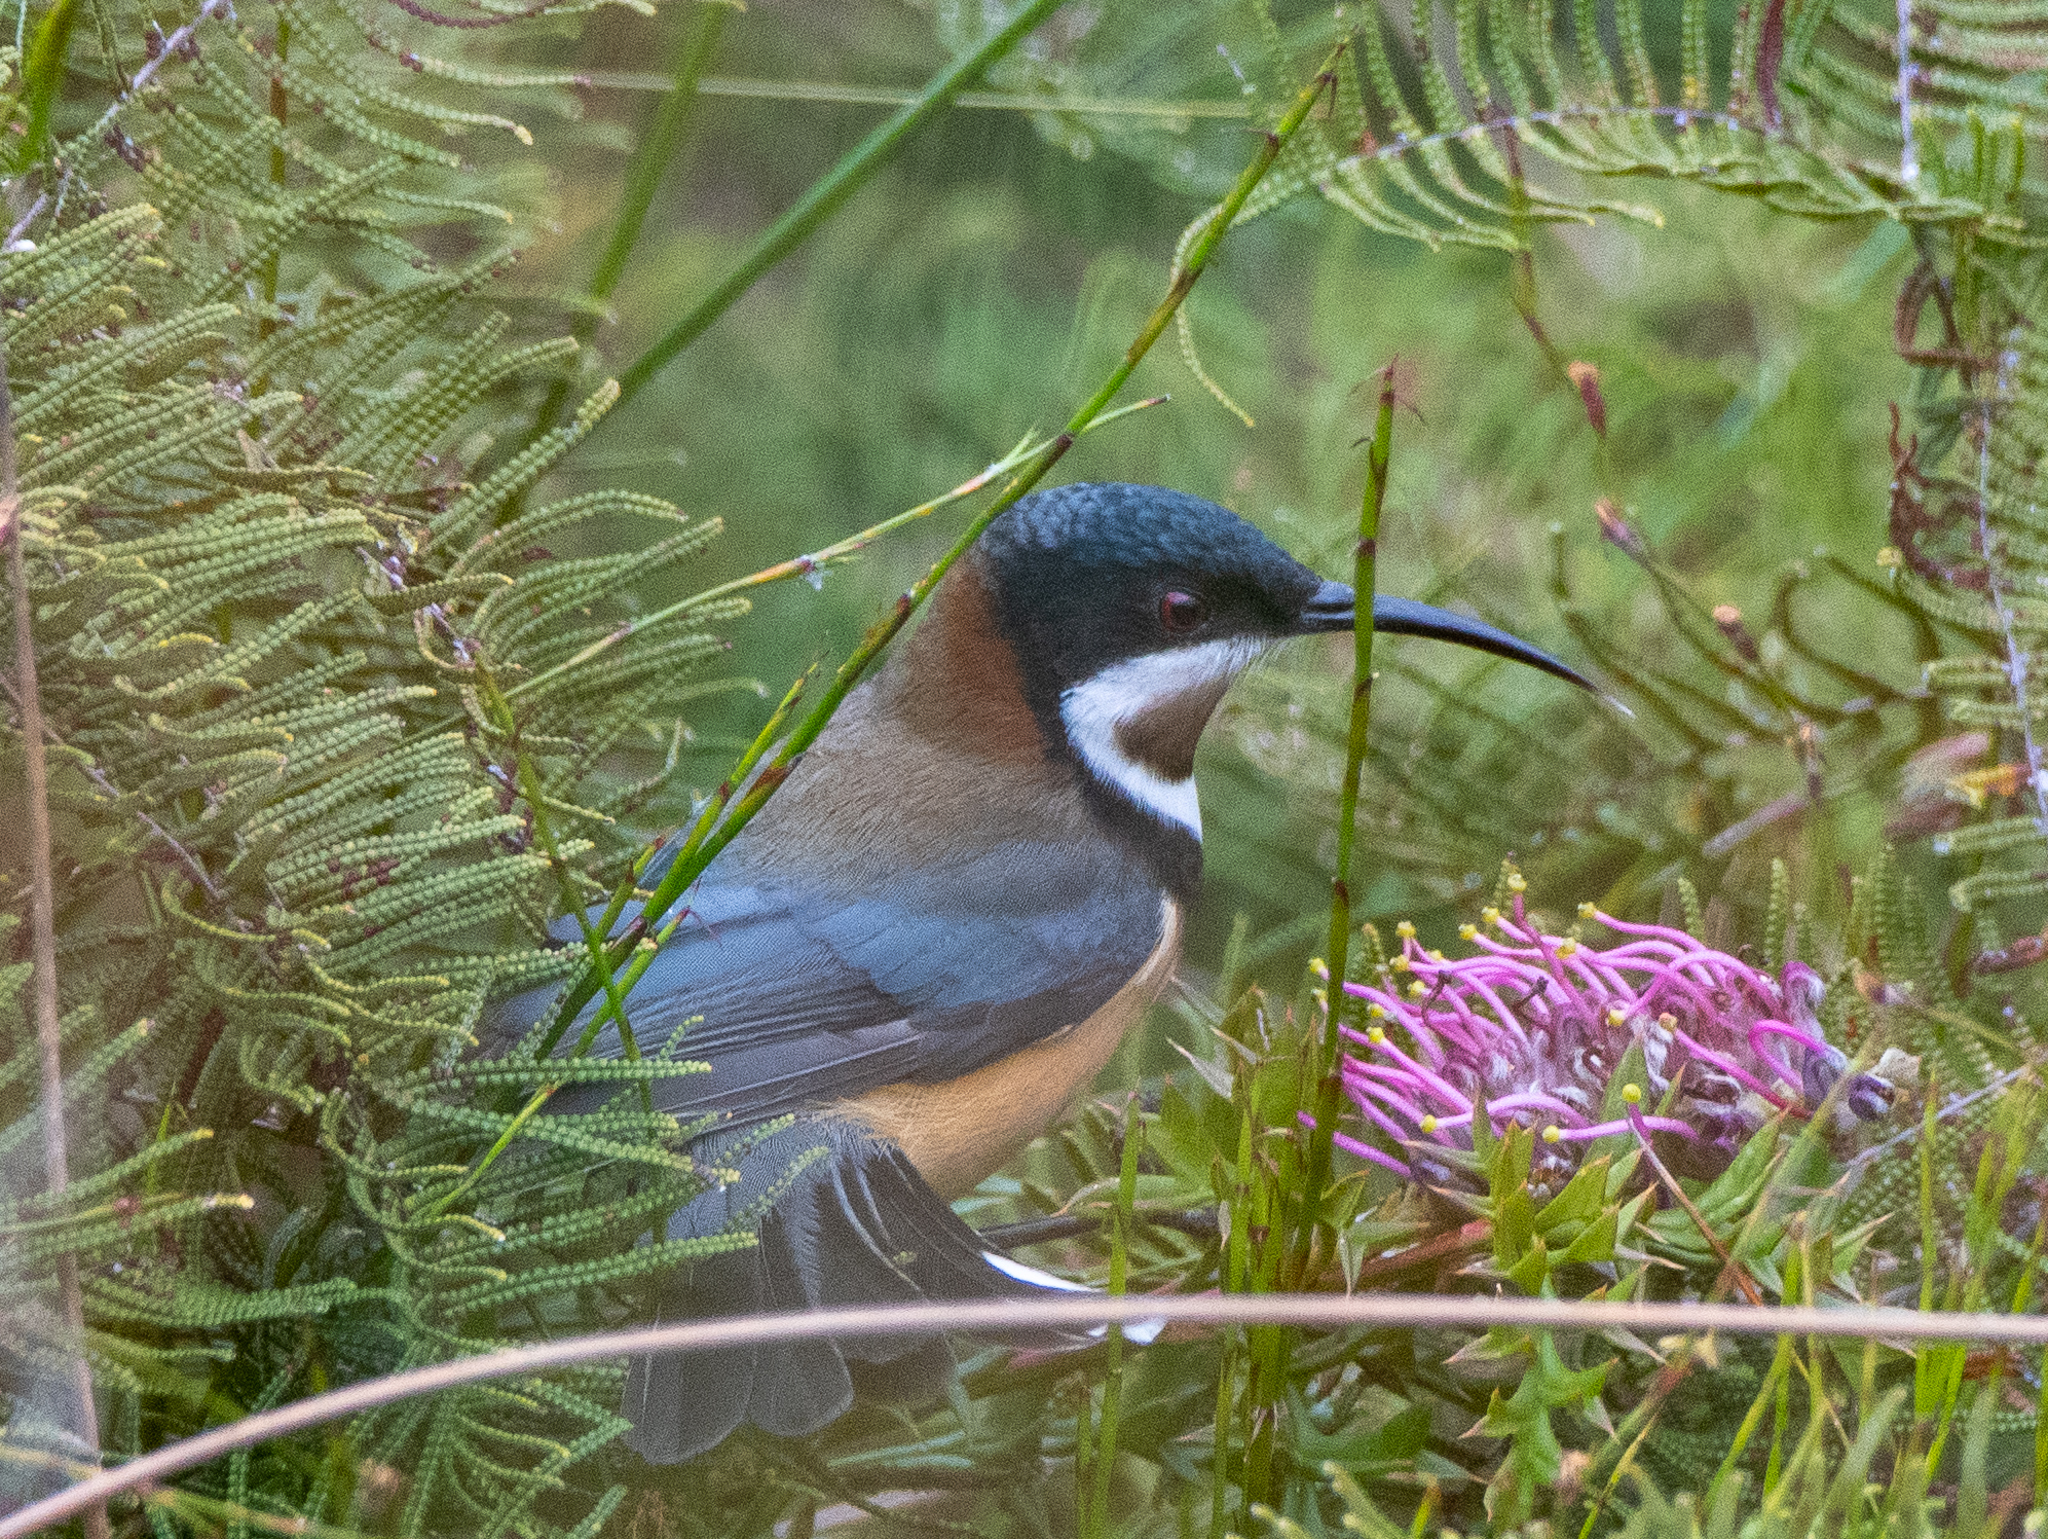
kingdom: Animalia
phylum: Chordata
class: Aves
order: Passeriformes
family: Meliphagidae
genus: Acanthorhynchus
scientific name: Acanthorhynchus tenuirostris
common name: Eastern spinebill
